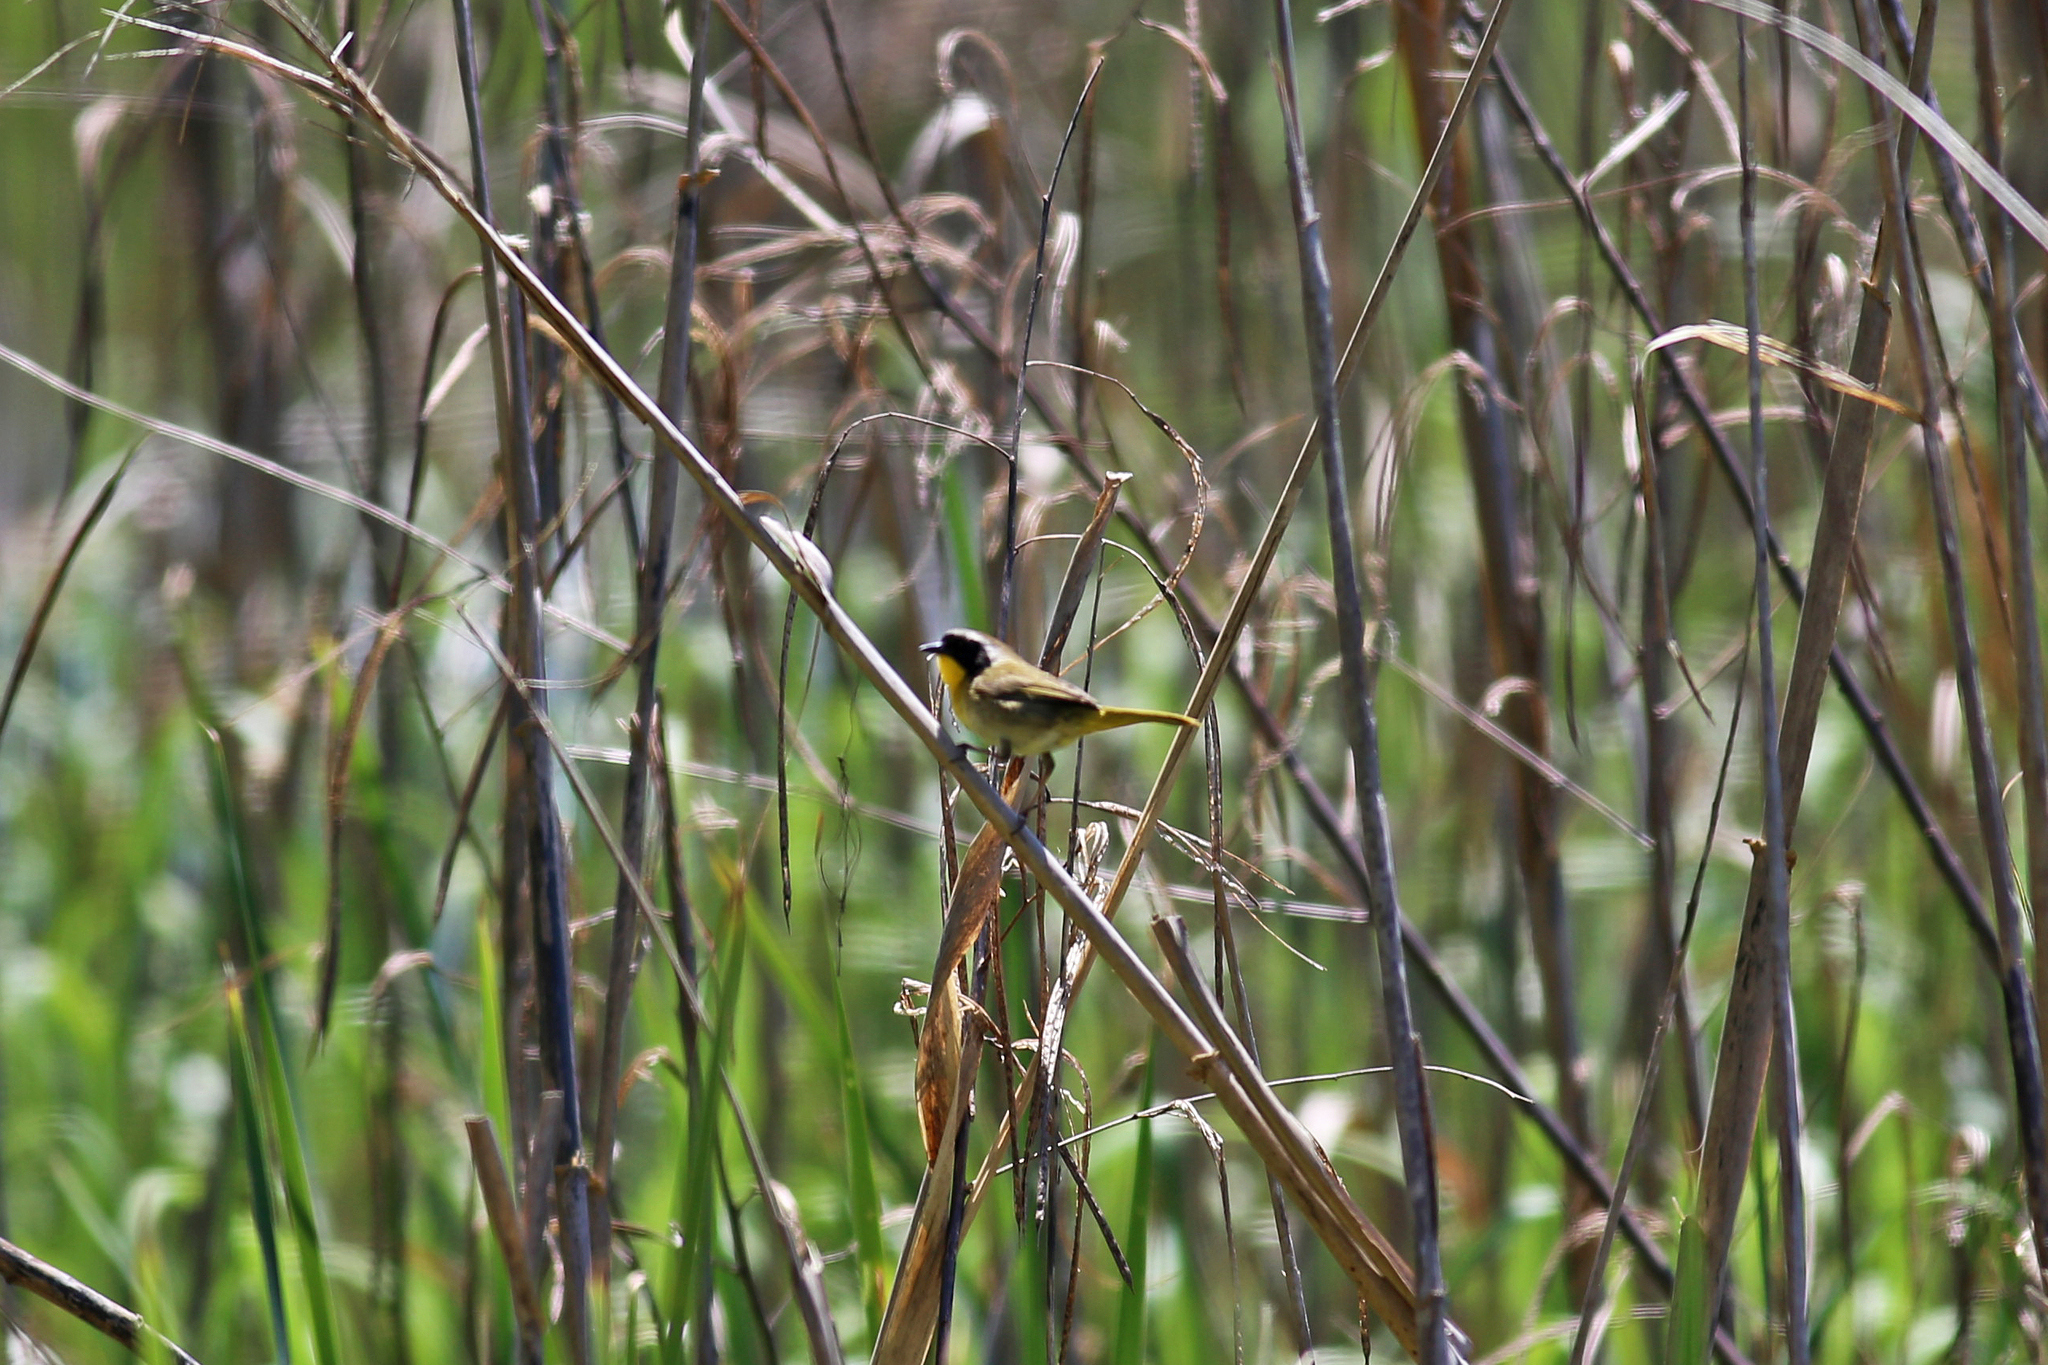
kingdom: Animalia
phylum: Chordata
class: Aves
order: Passeriformes
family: Parulidae
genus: Geothlypis
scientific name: Geothlypis trichas
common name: Common yellowthroat
